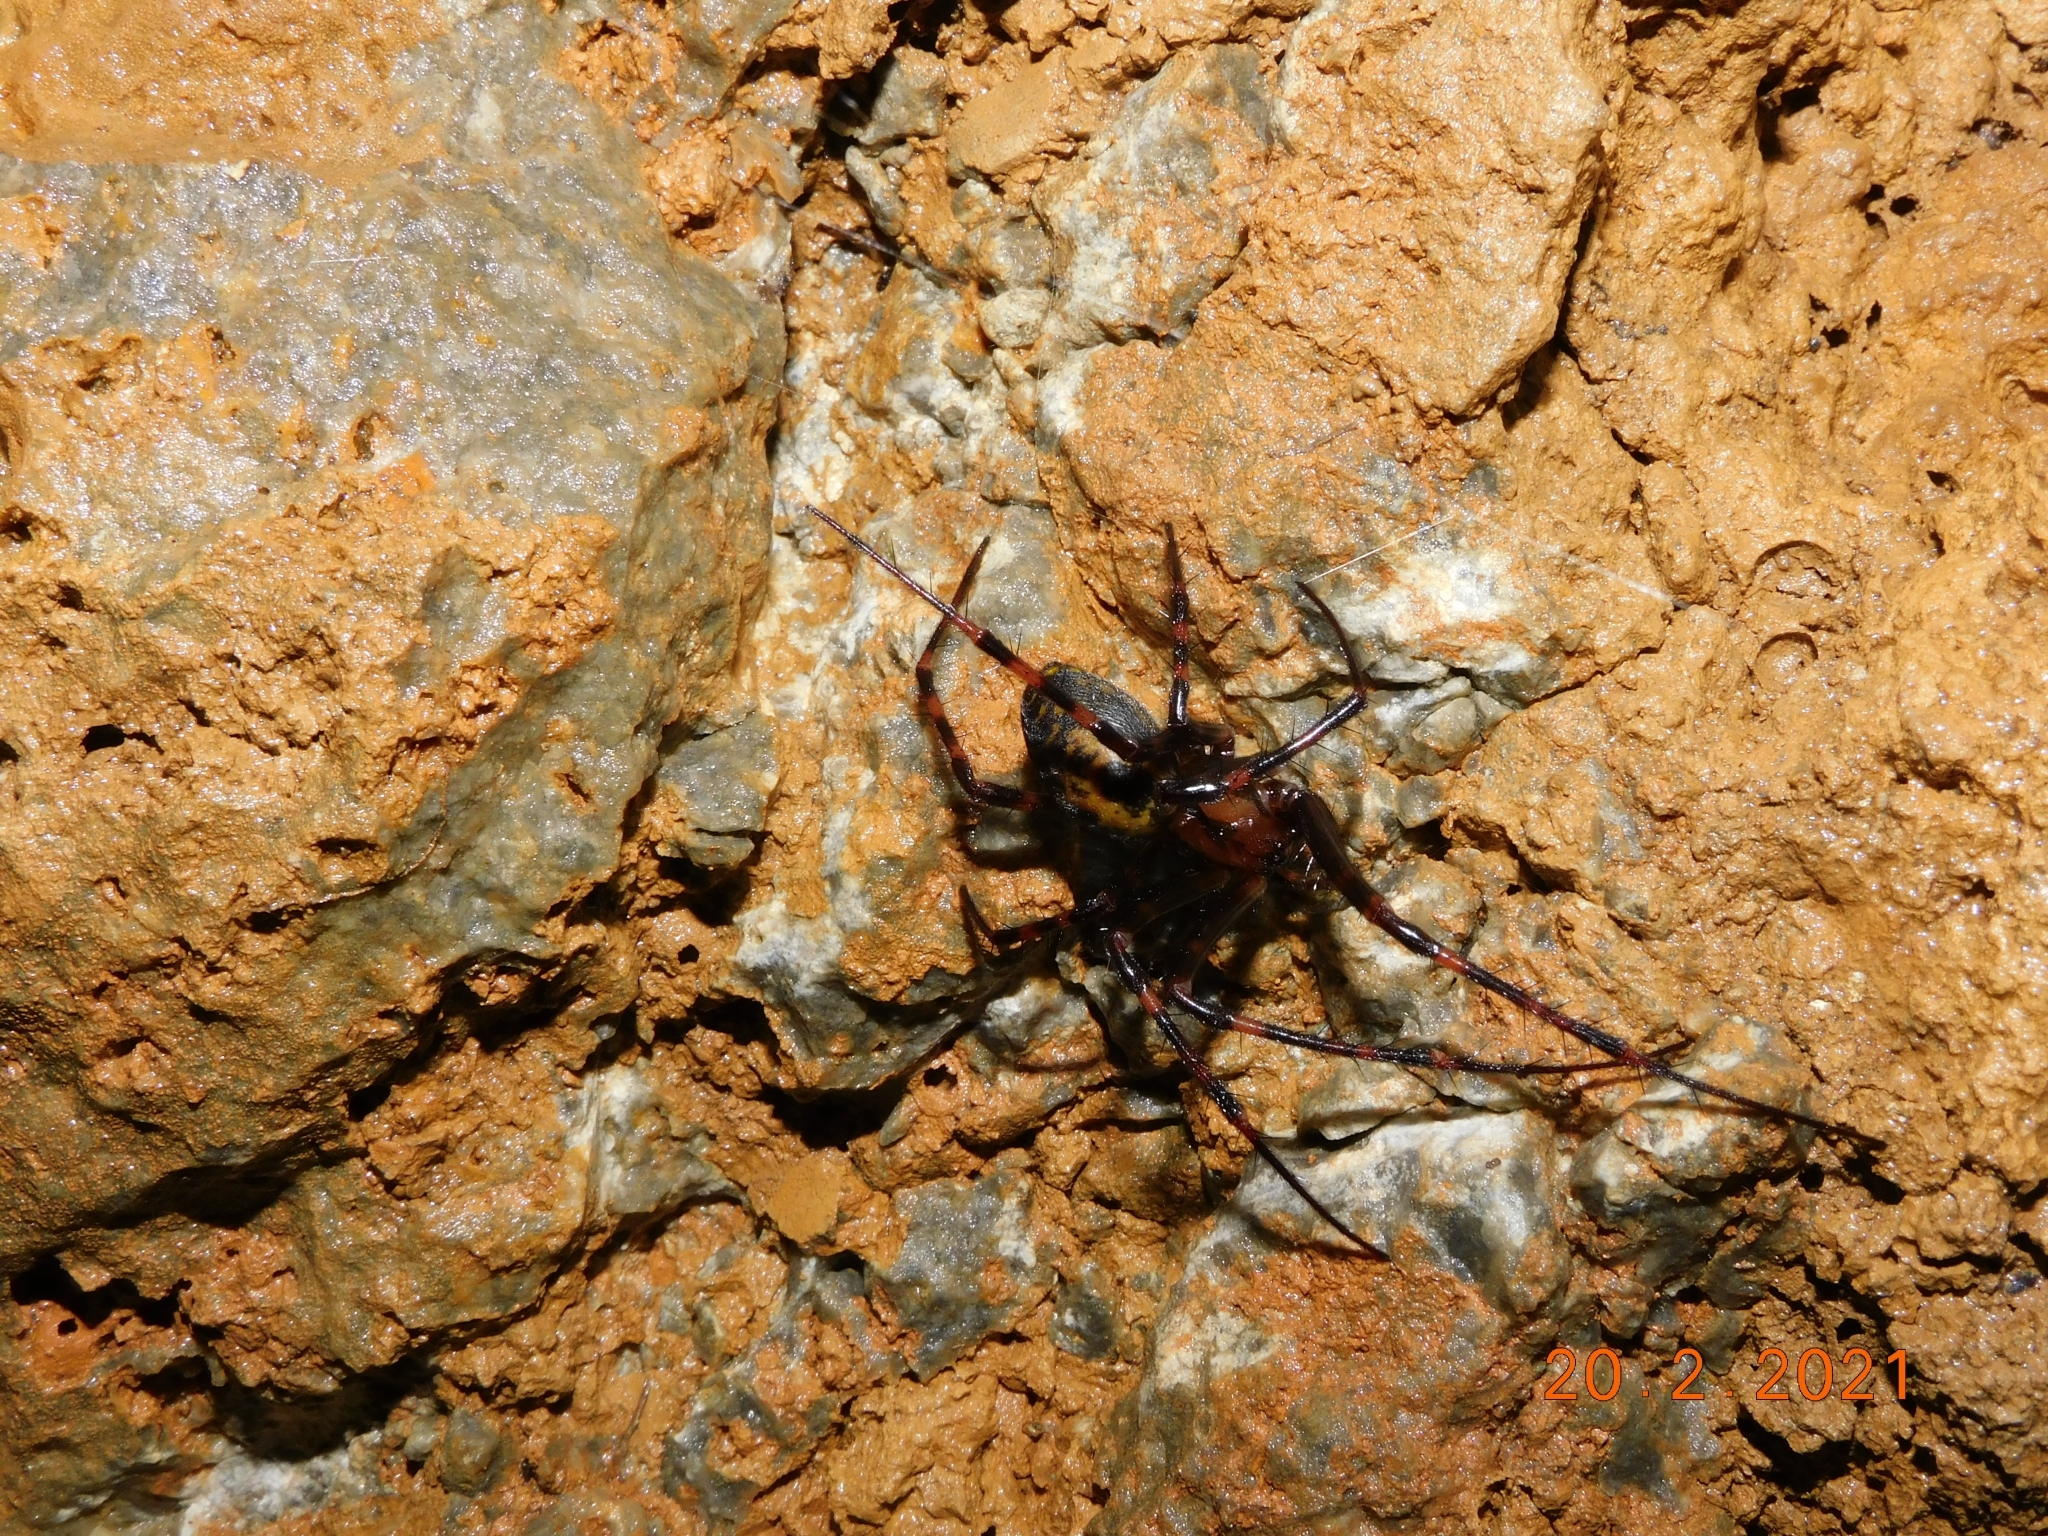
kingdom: Animalia
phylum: Arthropoda
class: Arachnida
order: Araneae
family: Tetragnathidae
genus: Meta
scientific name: Meta menardi
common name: Cave spider
